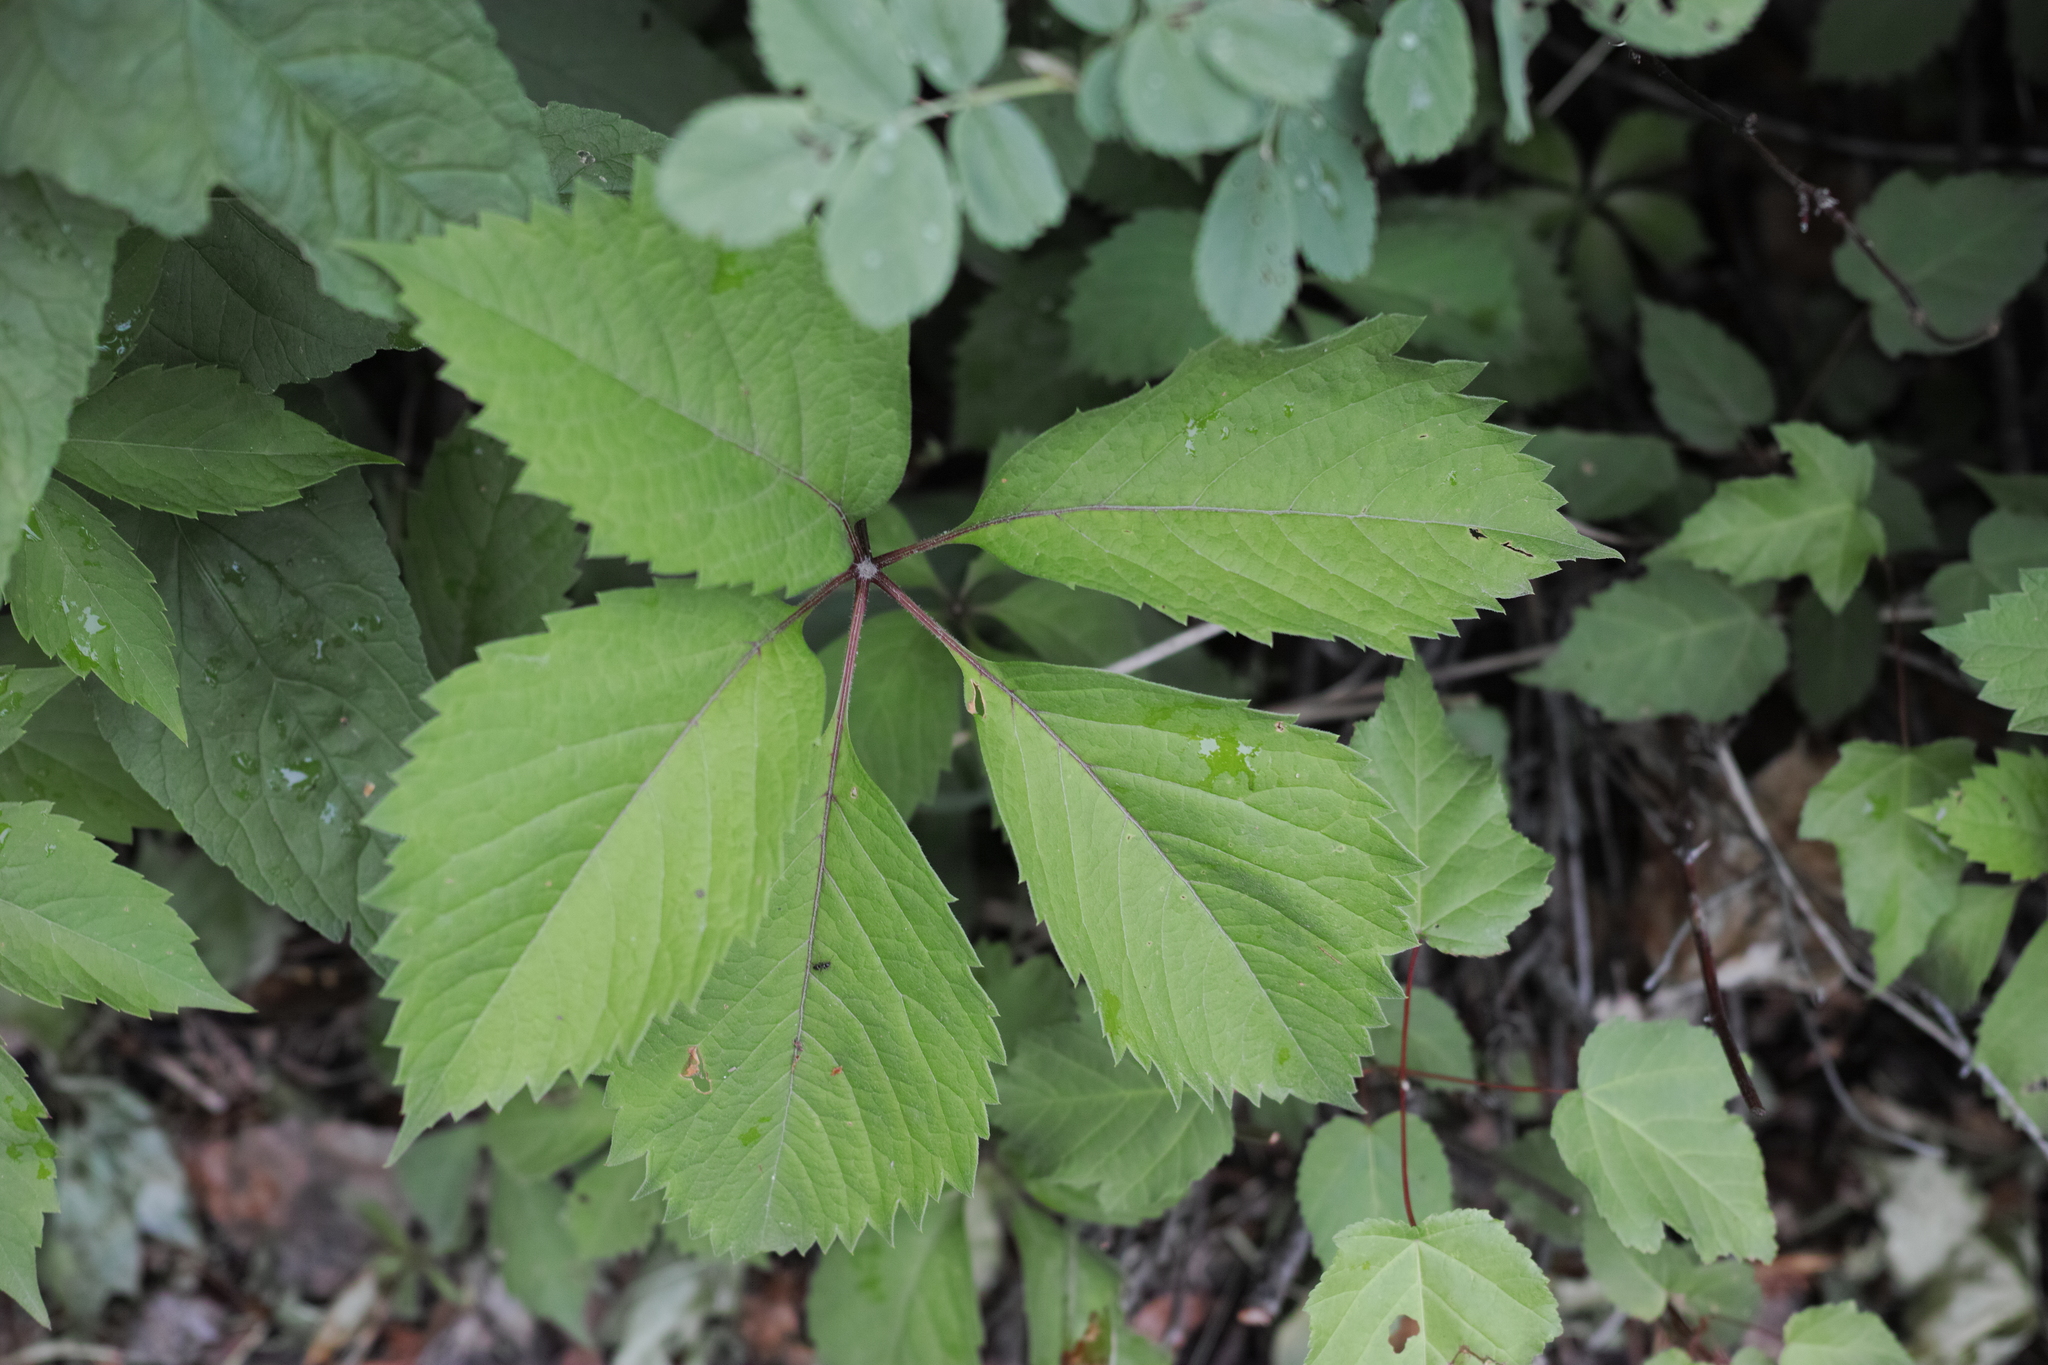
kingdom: Plantae
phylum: Tracheophyta
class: Magnoliopsida
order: Vitales
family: Vitaceae
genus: Parthenocissus
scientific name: Parthenocissus inserta
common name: False virginia-creeper
